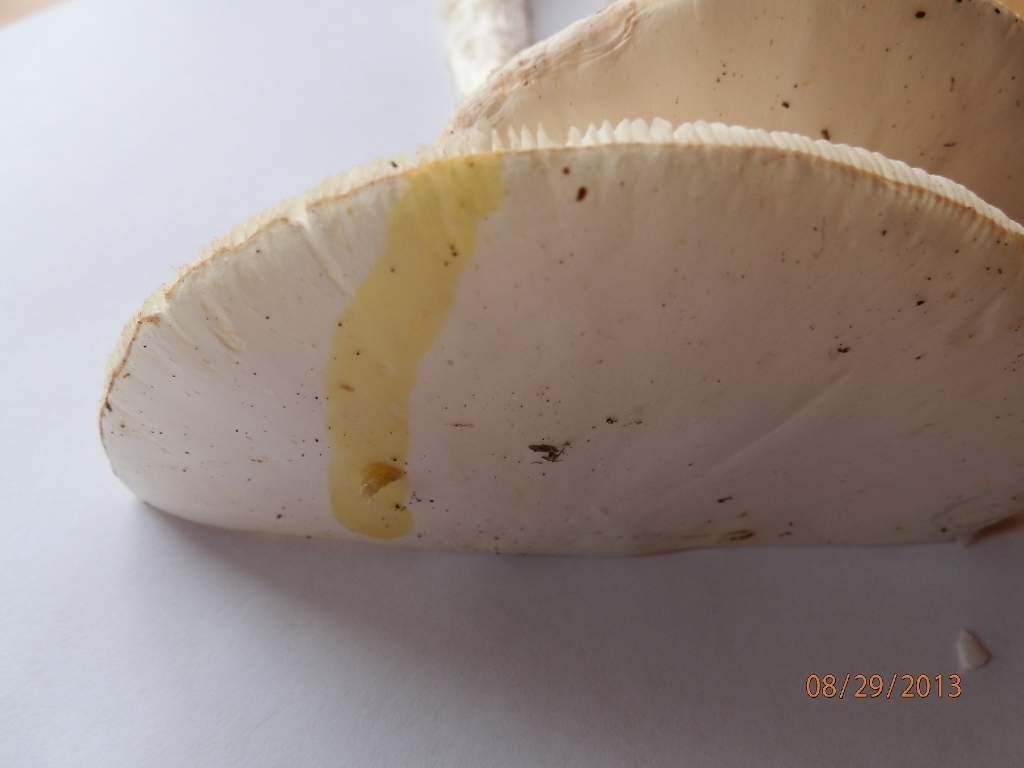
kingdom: Fungi
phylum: Basidiomycota
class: Agaricomycetes
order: Agaricales
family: Amanitaceae
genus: Amanita
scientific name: Amanita bisporigera
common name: Eastern north american destroying angel
